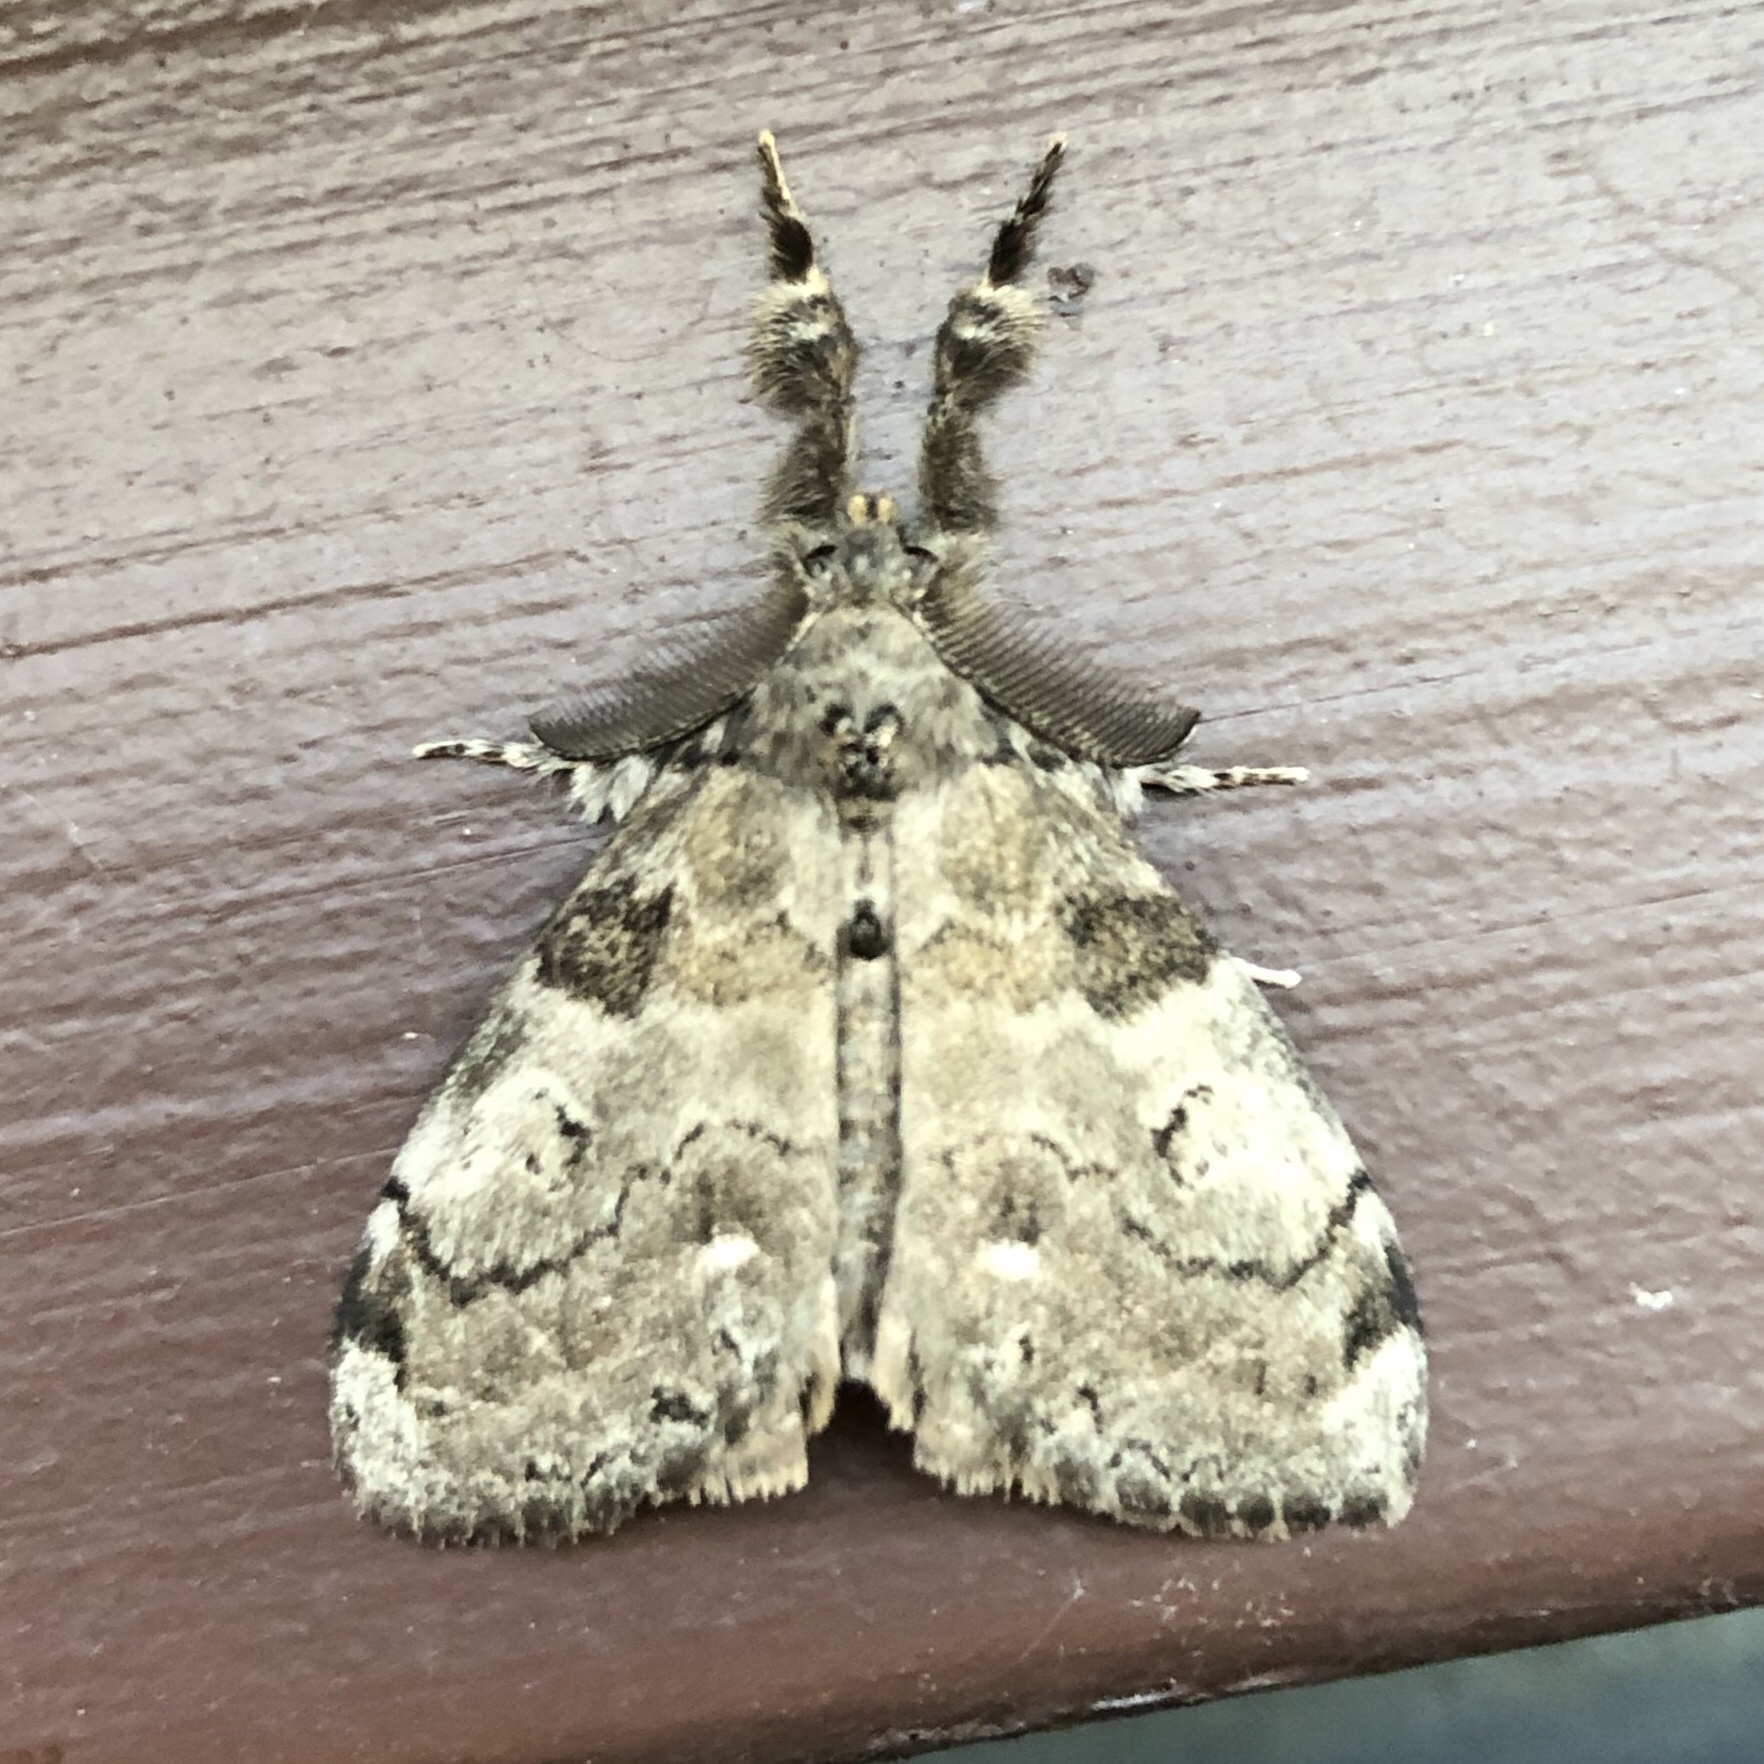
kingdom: Animalia
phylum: Arthropoda
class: Insecta
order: Lepidoptera
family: Erebidae
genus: Orgyia
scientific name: Orgyia leucostigma
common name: White-marked tussock moth
